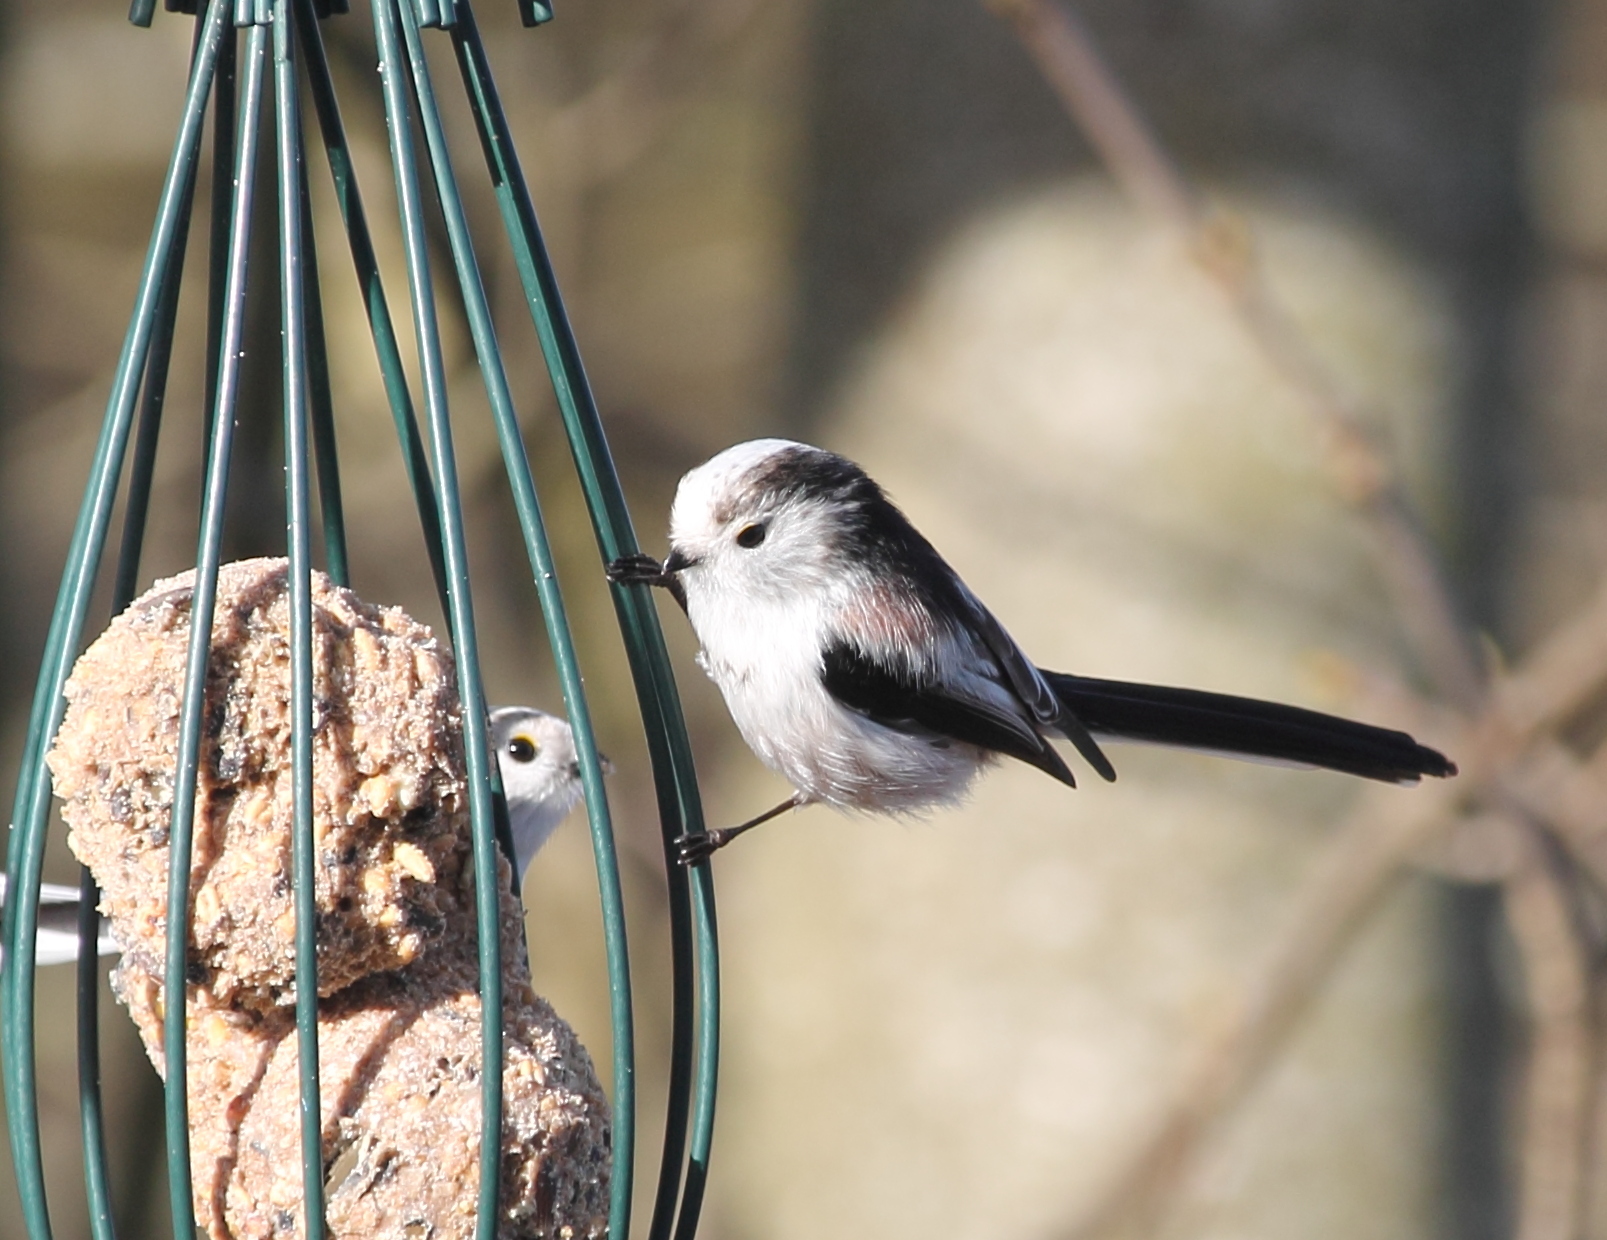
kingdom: Animalia
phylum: Chordata
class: Aves
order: Passeriformes
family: Aegithalidae
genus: Aegithalos
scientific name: Aegithalos caudatus
